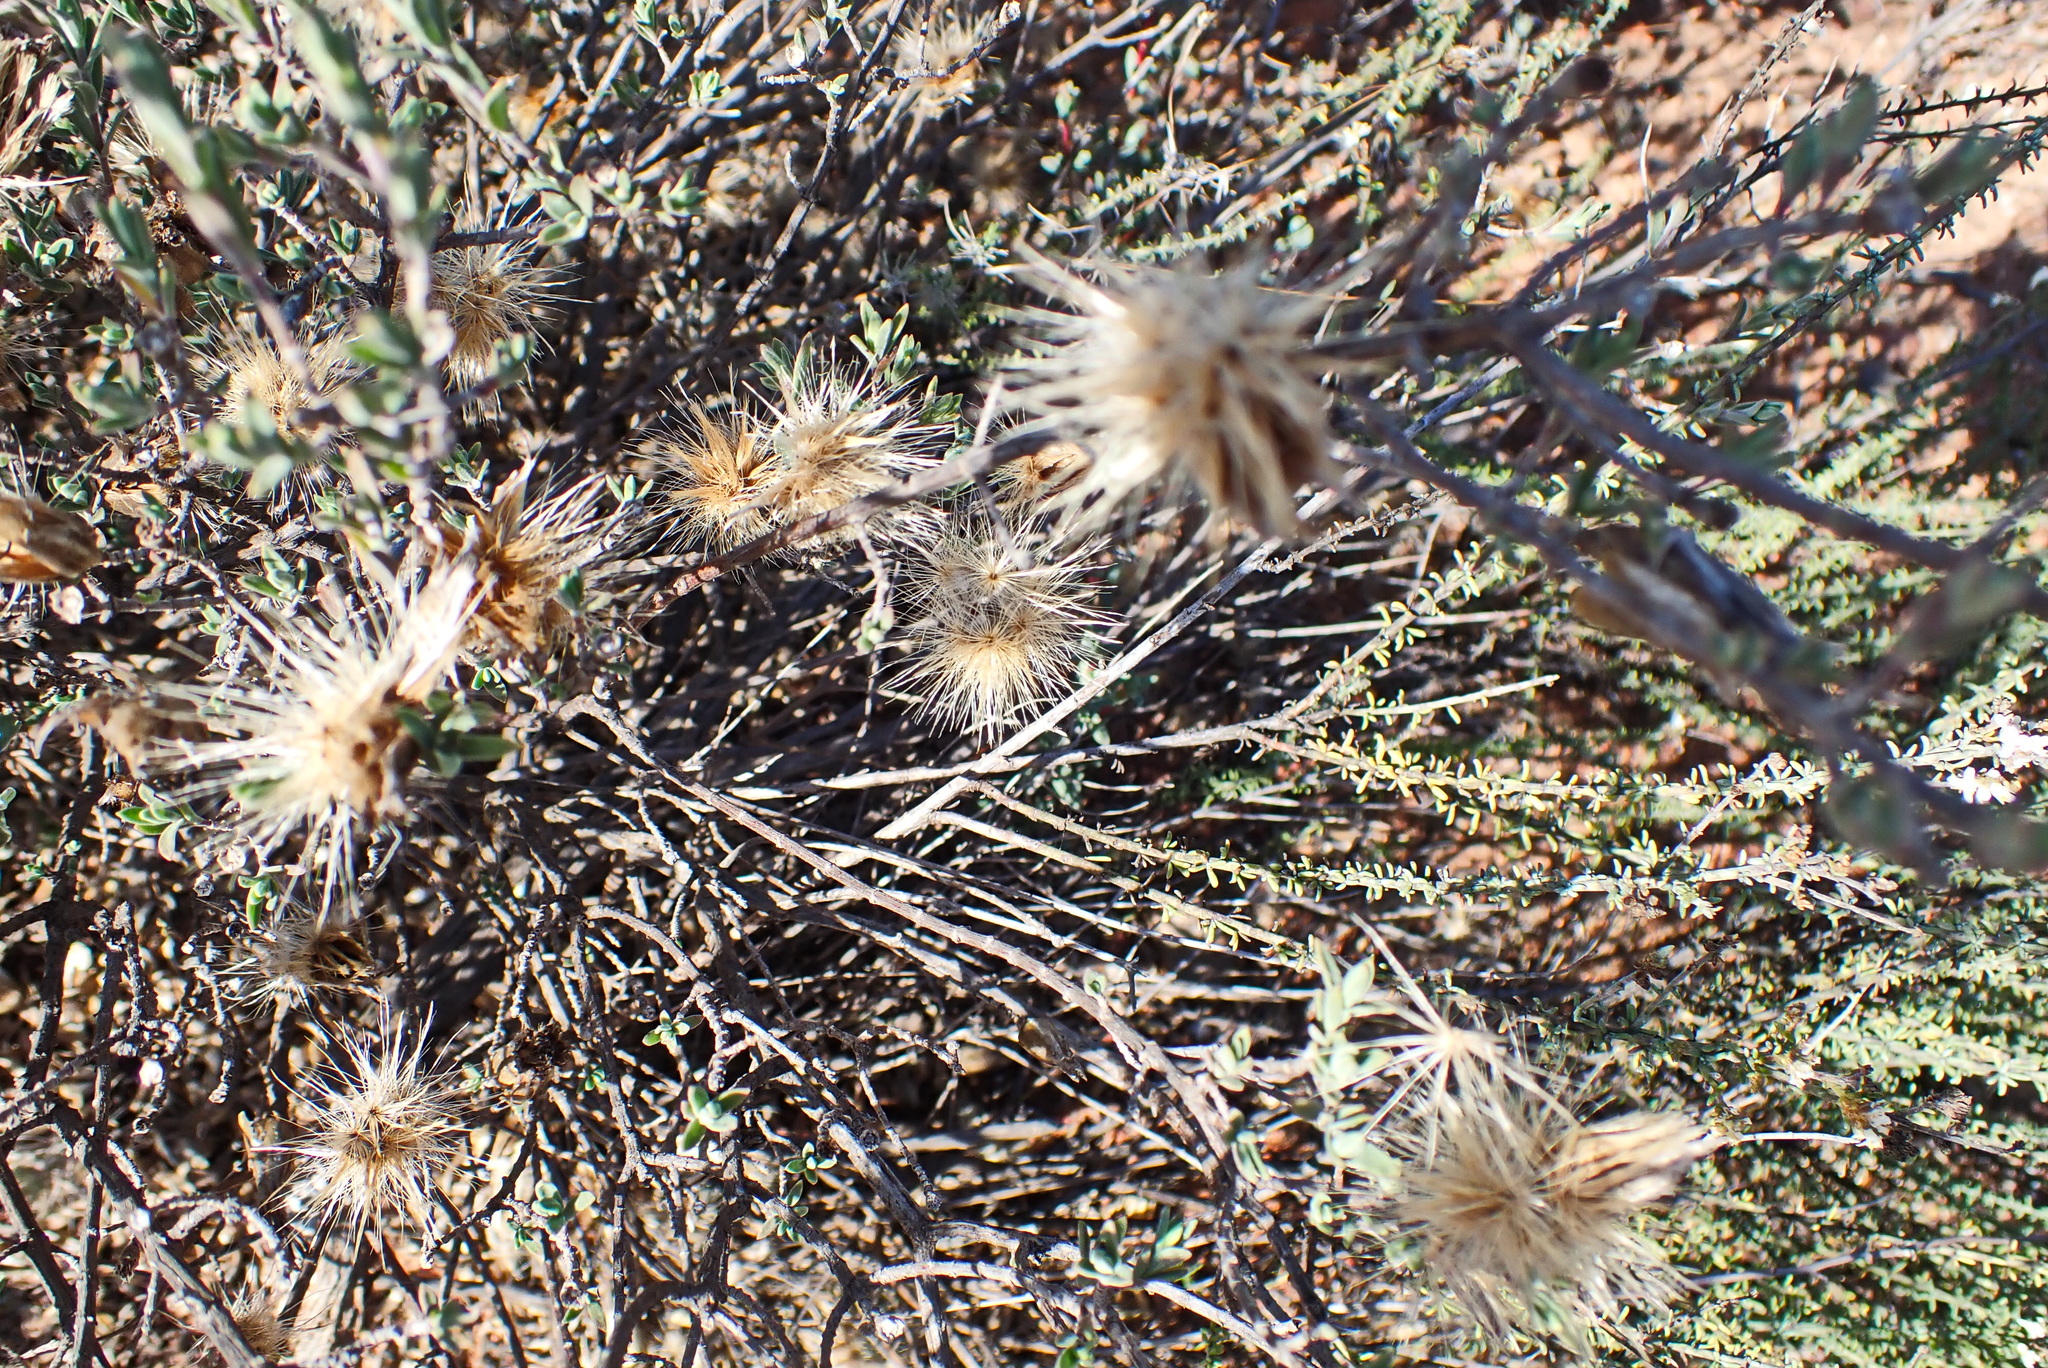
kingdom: Plantae
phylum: Tracheophyta
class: Magnoliopsida
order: Asterales
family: Asteraceae
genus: Pteronia
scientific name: Pteronia incana
